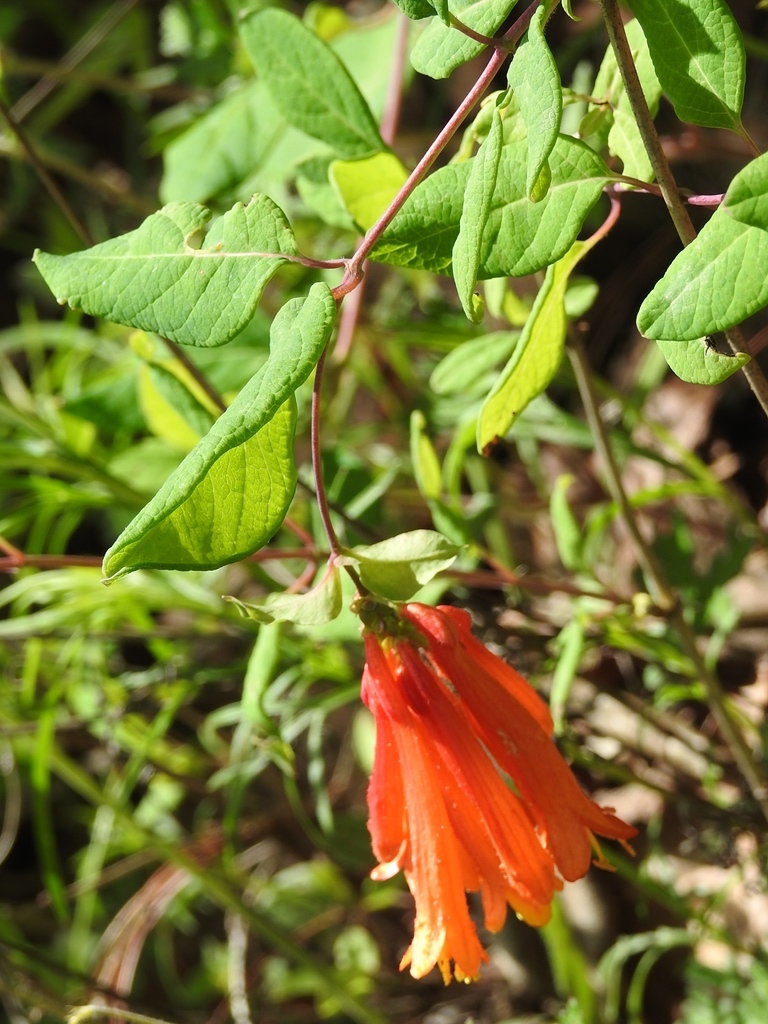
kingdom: Plantae
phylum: Tracheophyta
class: Magnoliopsida
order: Dipsacales
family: Caprifoliaceae
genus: Lonicera
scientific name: Lonicera pilosa
